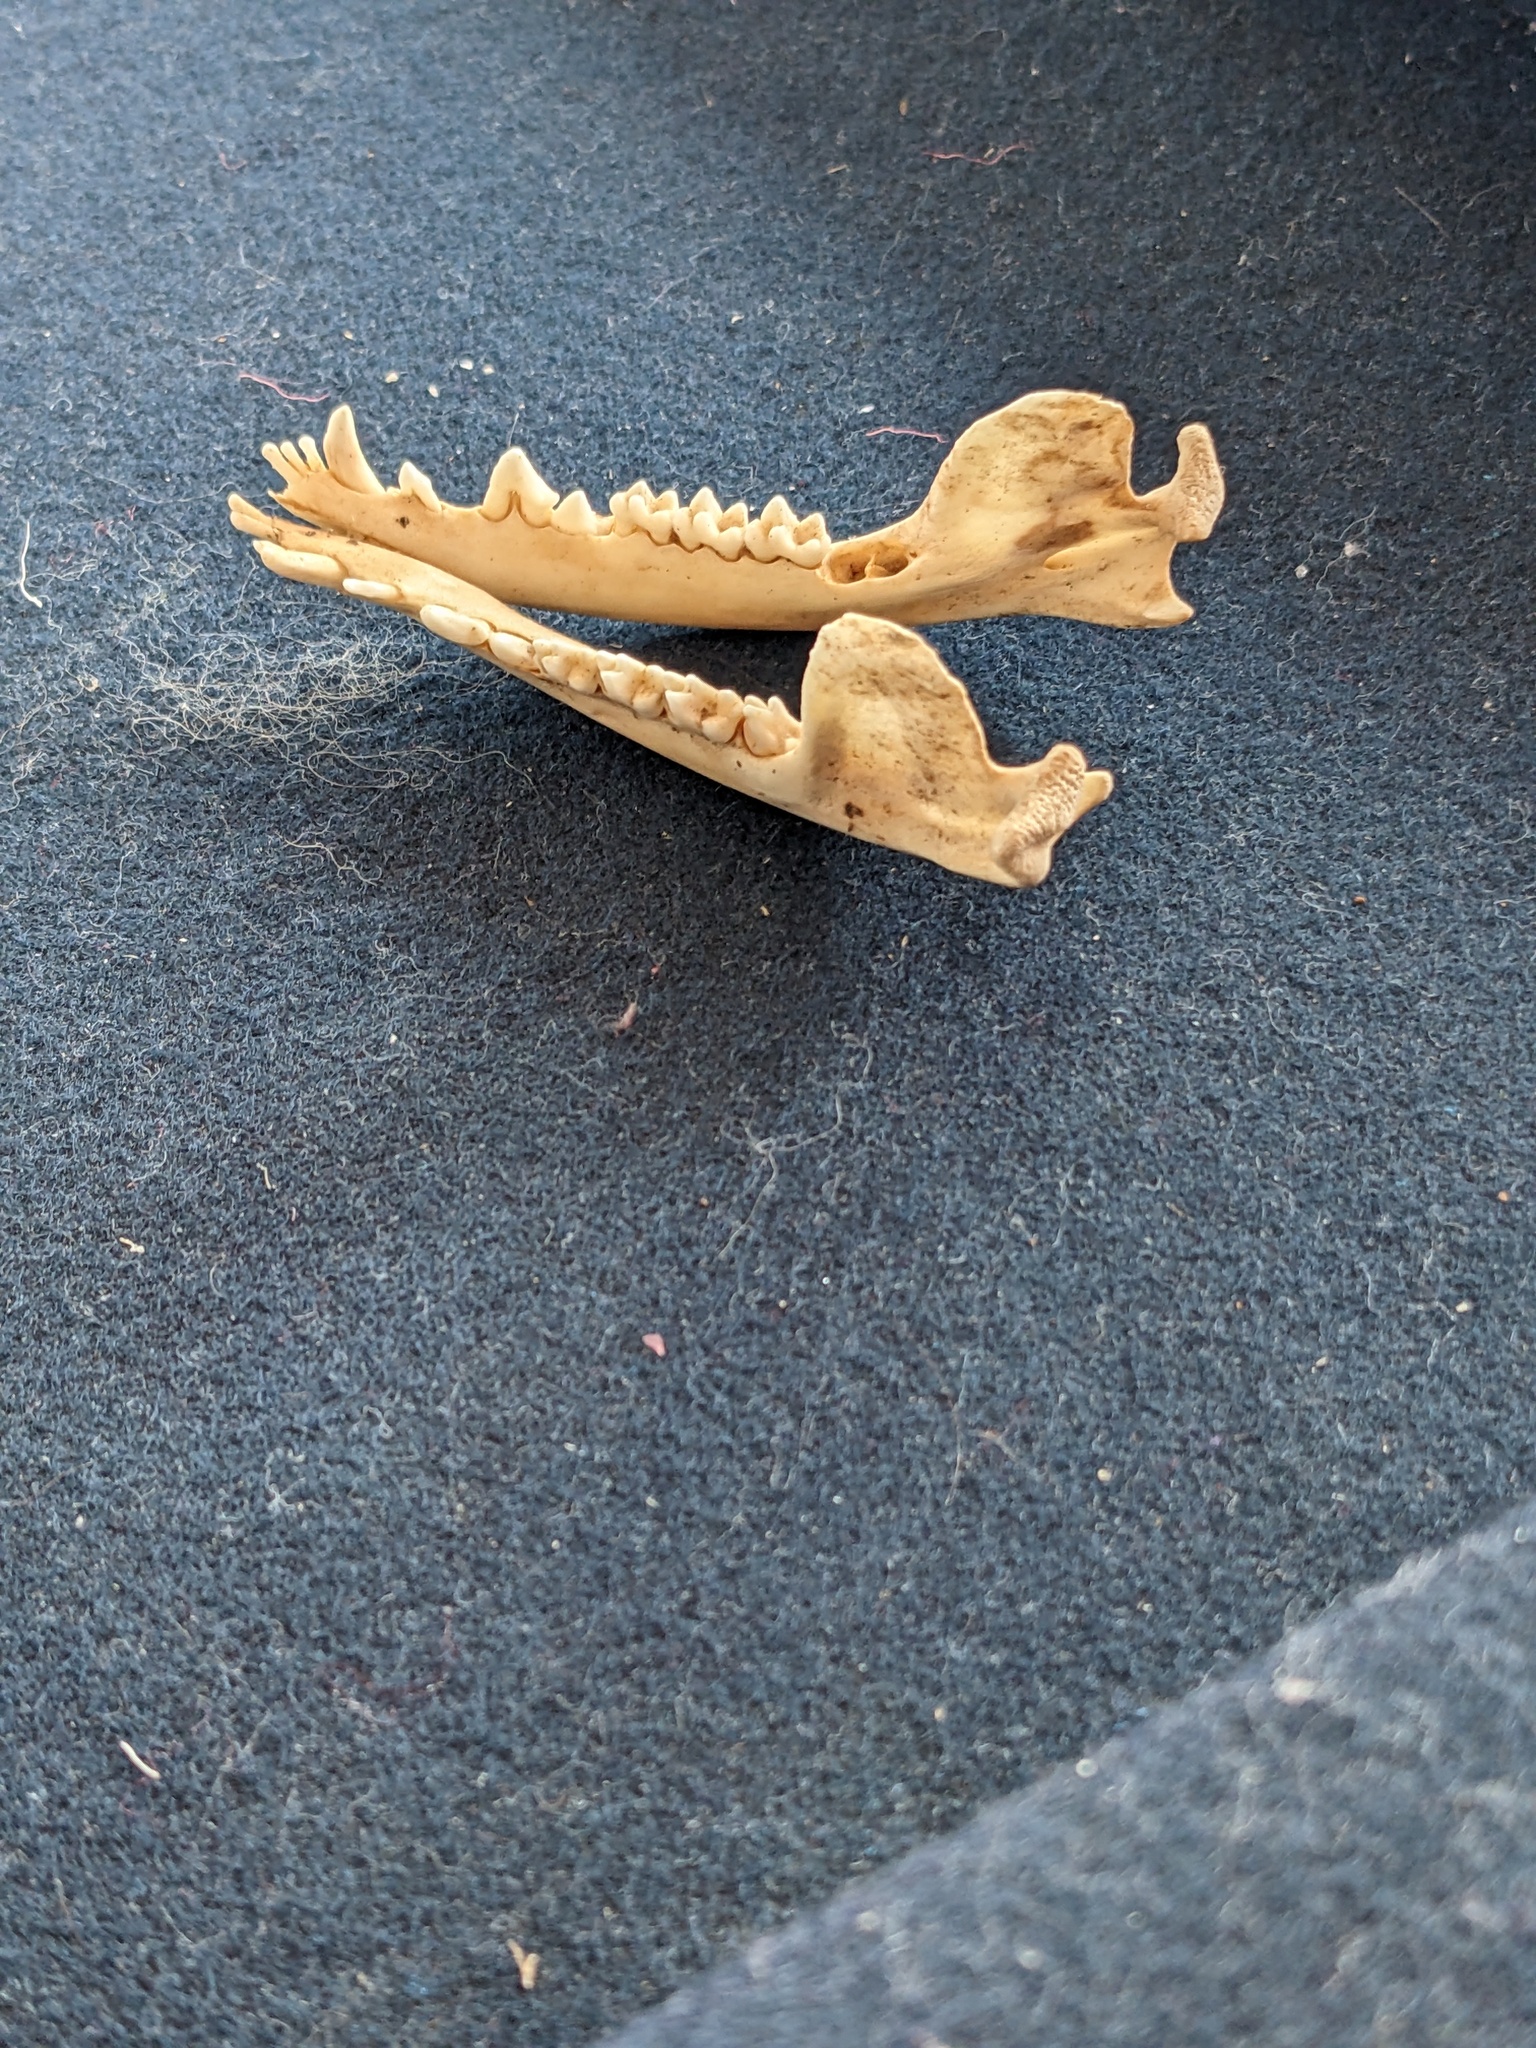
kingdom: Animalia
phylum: Chordata
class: Mammalia
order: Didelphimorphia
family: Didelphidae
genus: Didelphis
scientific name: Didelphis virginiana
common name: Virginia opossum
